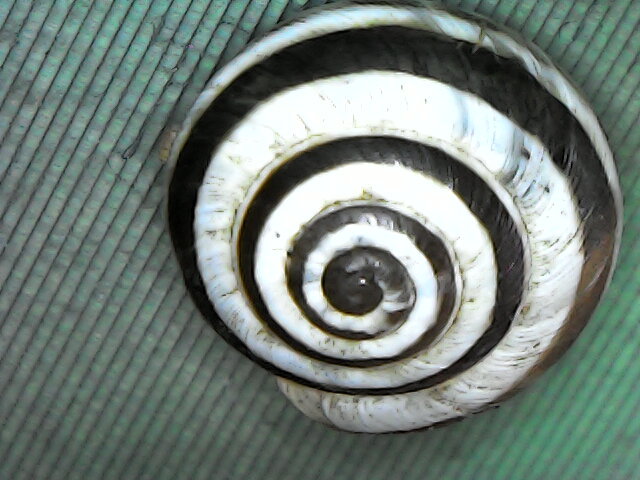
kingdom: Animalia
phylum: Mollusca
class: Gastropoda
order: Stylommatophora
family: Geomitridae
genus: Cernuella
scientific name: Cernuella virgata
